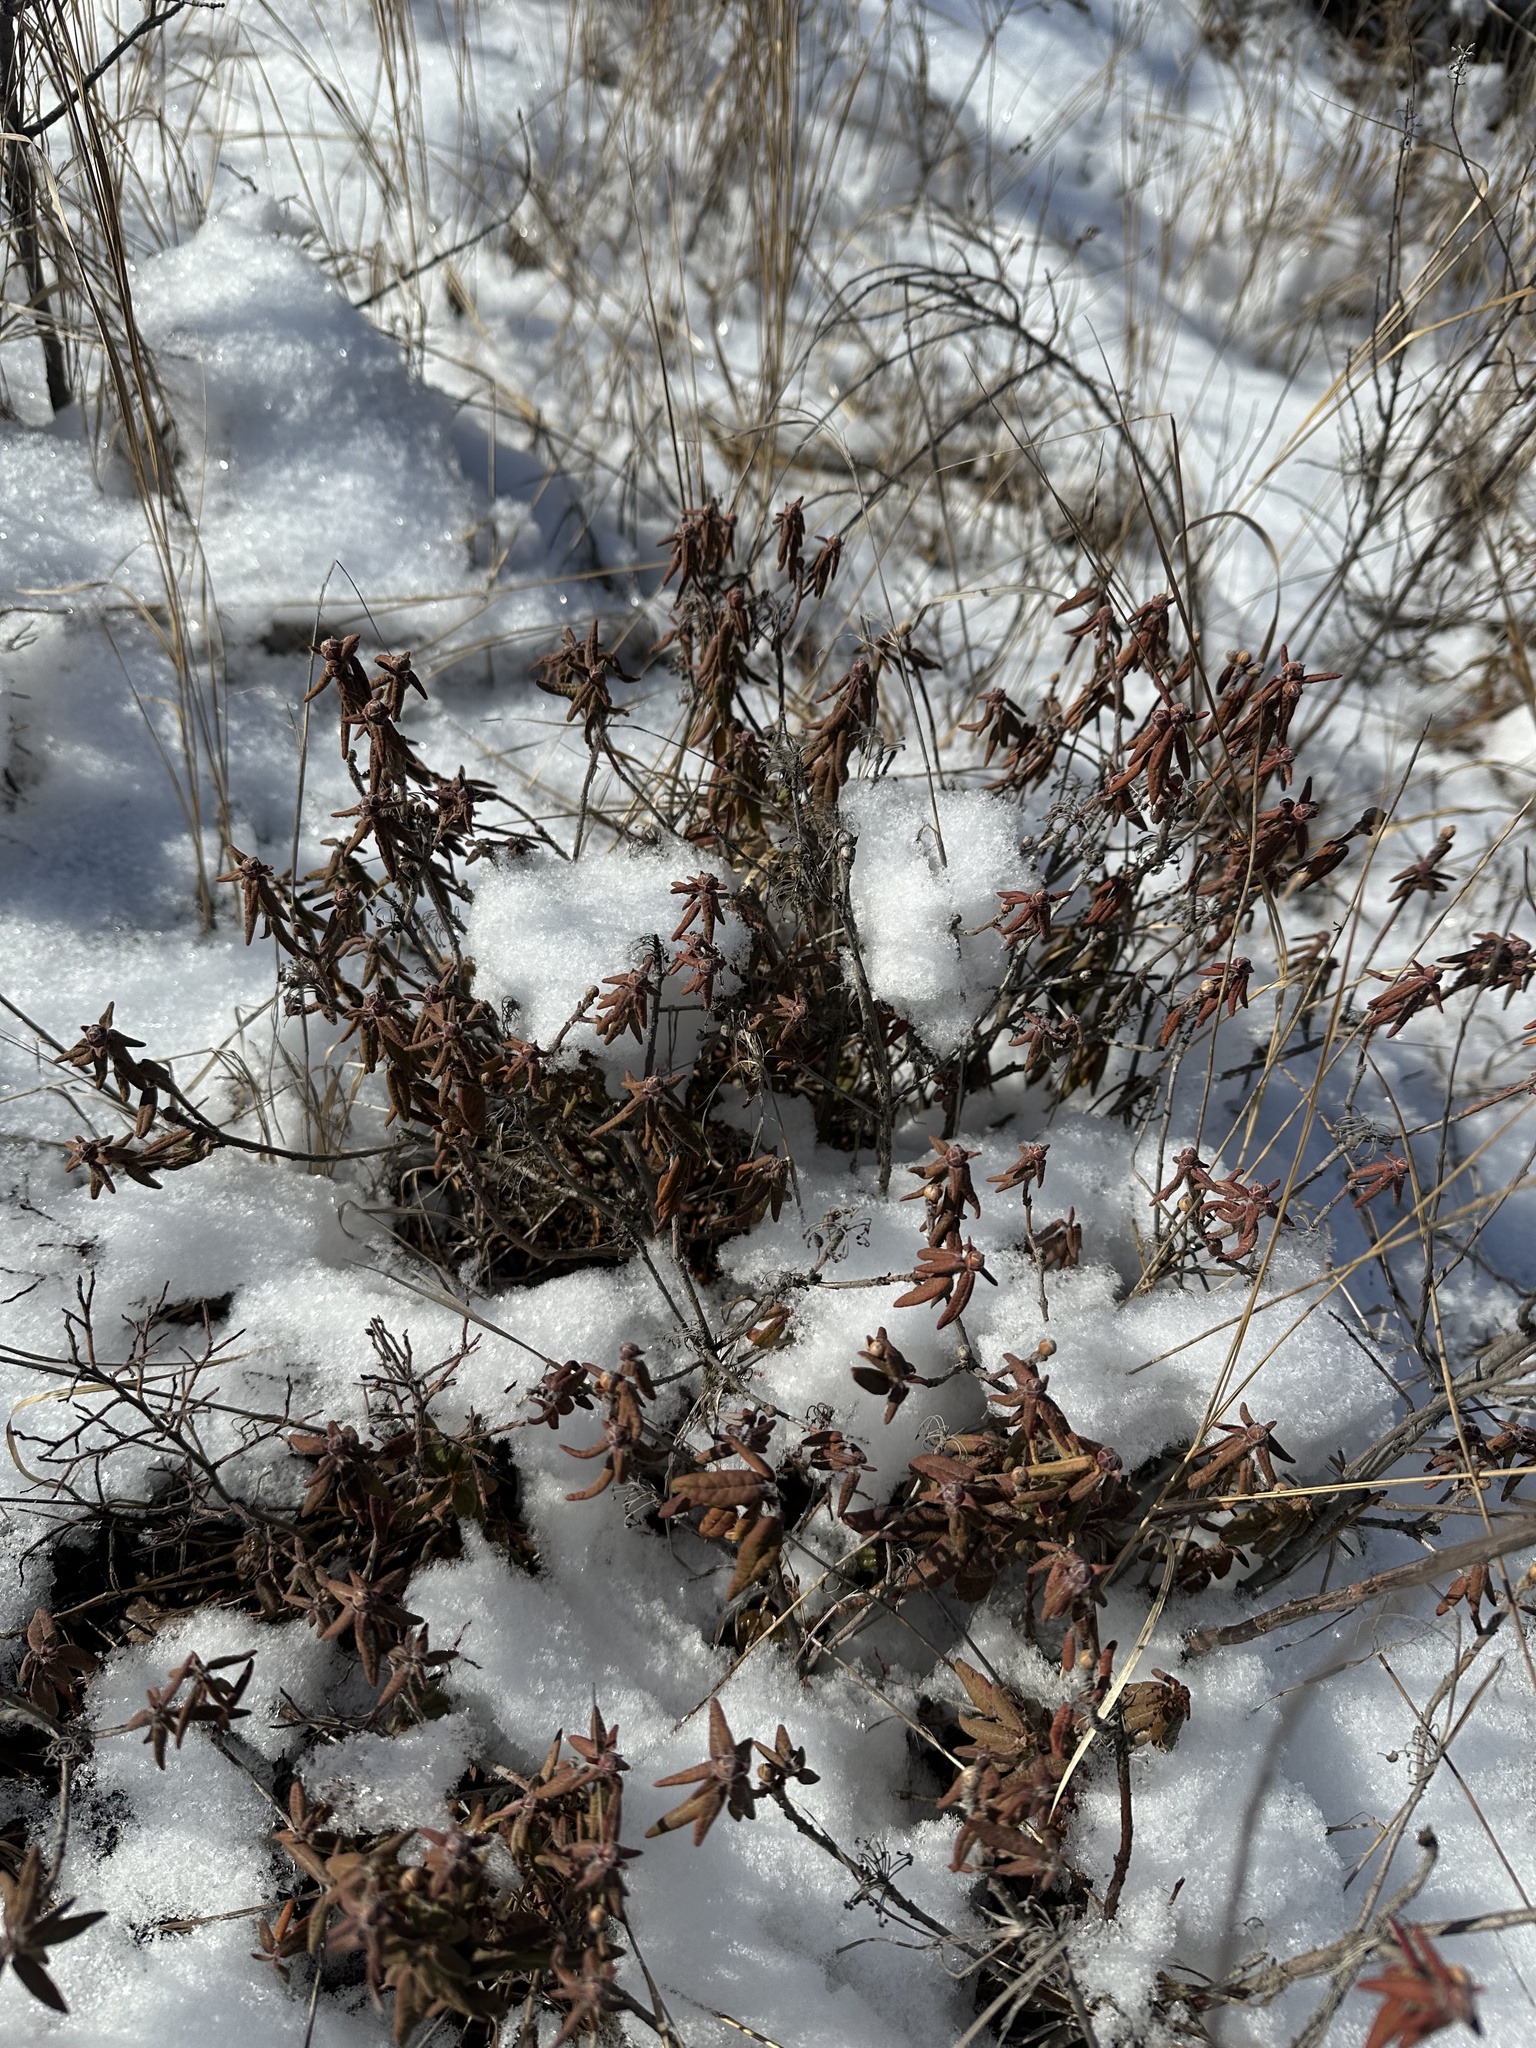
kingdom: Plantae
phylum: Tracheophyta
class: Magnoliopsida
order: Ericales
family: Ericaceae
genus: Rhododendron
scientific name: Rhododendron groenlandicum
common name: Bog labrador tea
